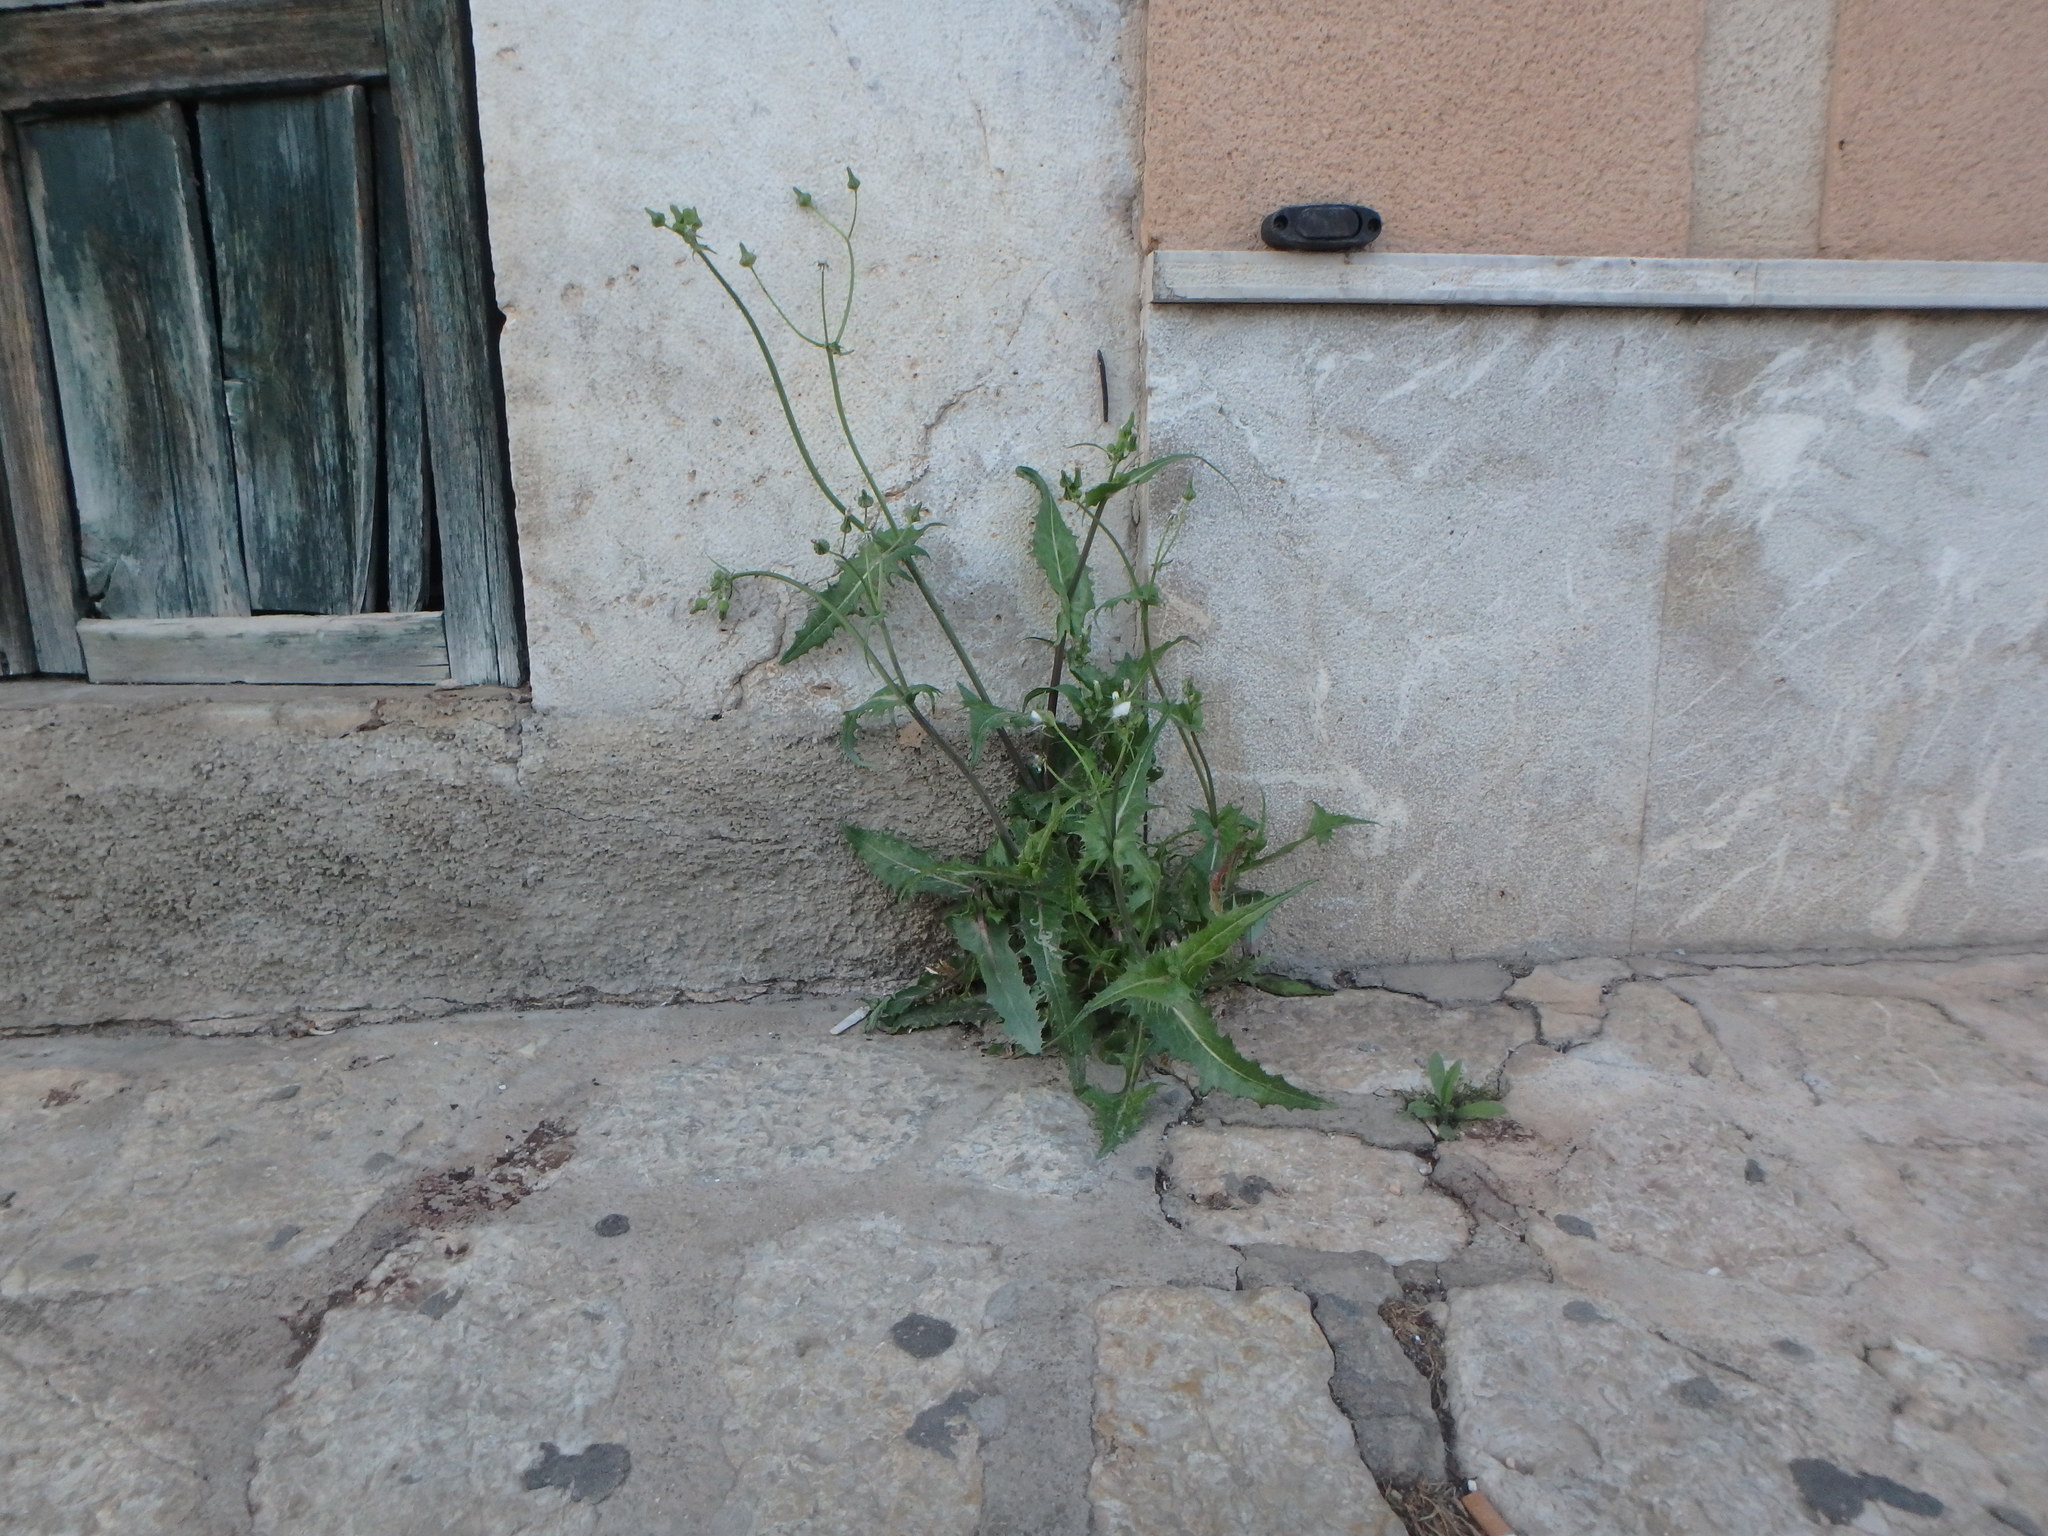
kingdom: Plantae
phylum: Tracheophyta
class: Magnoliopsida
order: Asterales
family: Asteraceae
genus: Sonchus
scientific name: Sonchus oleraceus
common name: Common sowthistle
